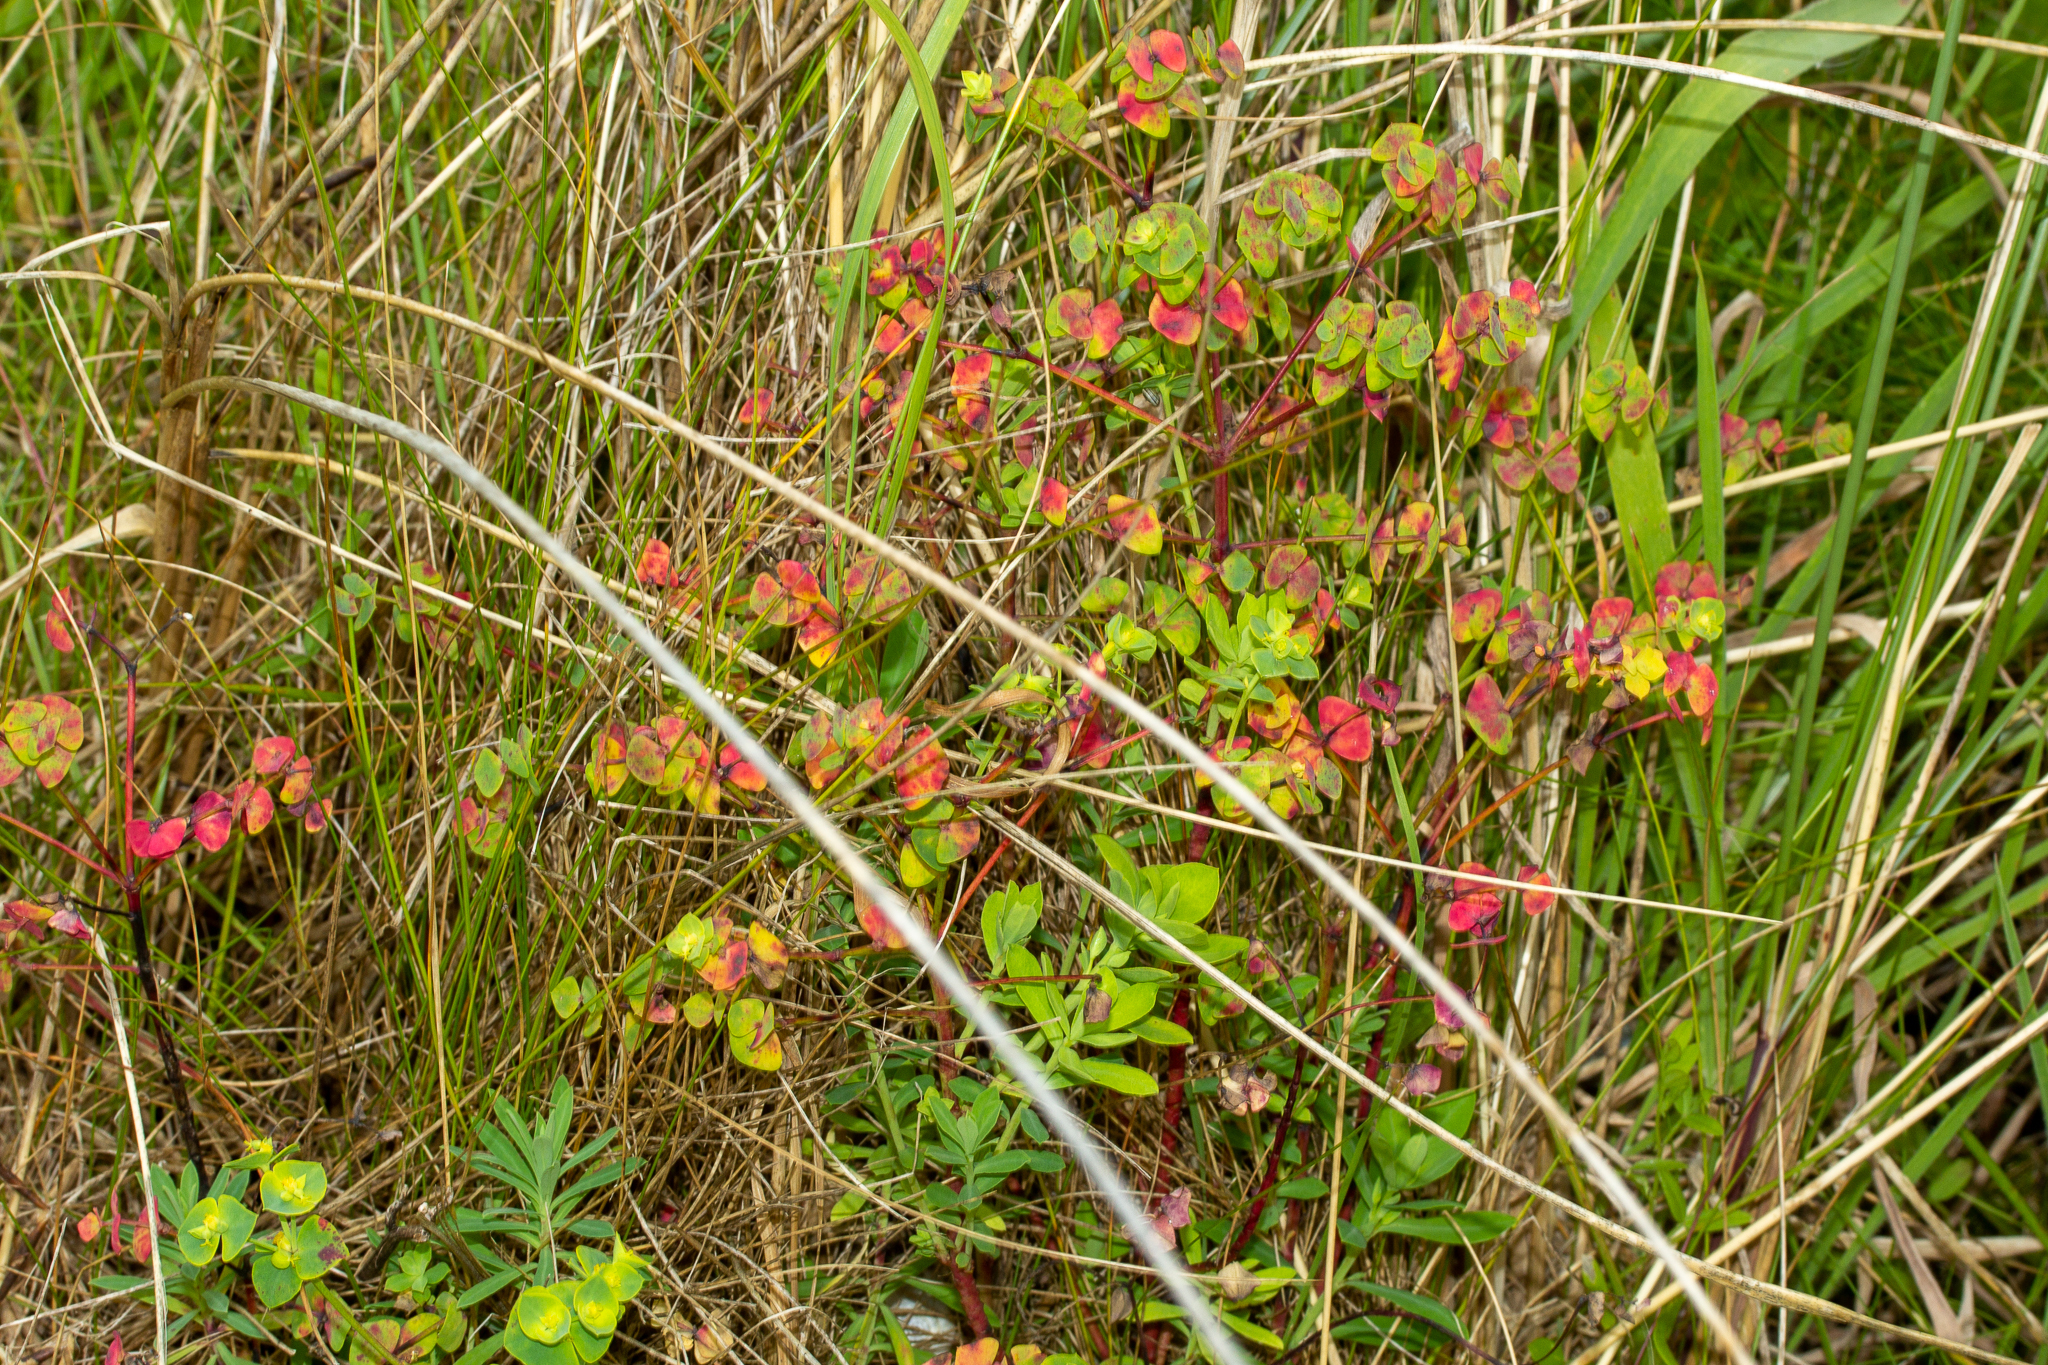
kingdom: Plantae
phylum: Tracheophyta
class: Magnoliopsida
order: Malpighiales
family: Euphorbiaceae
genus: Euphorbia
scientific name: Euphorbia portlandica
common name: Portland spurge
